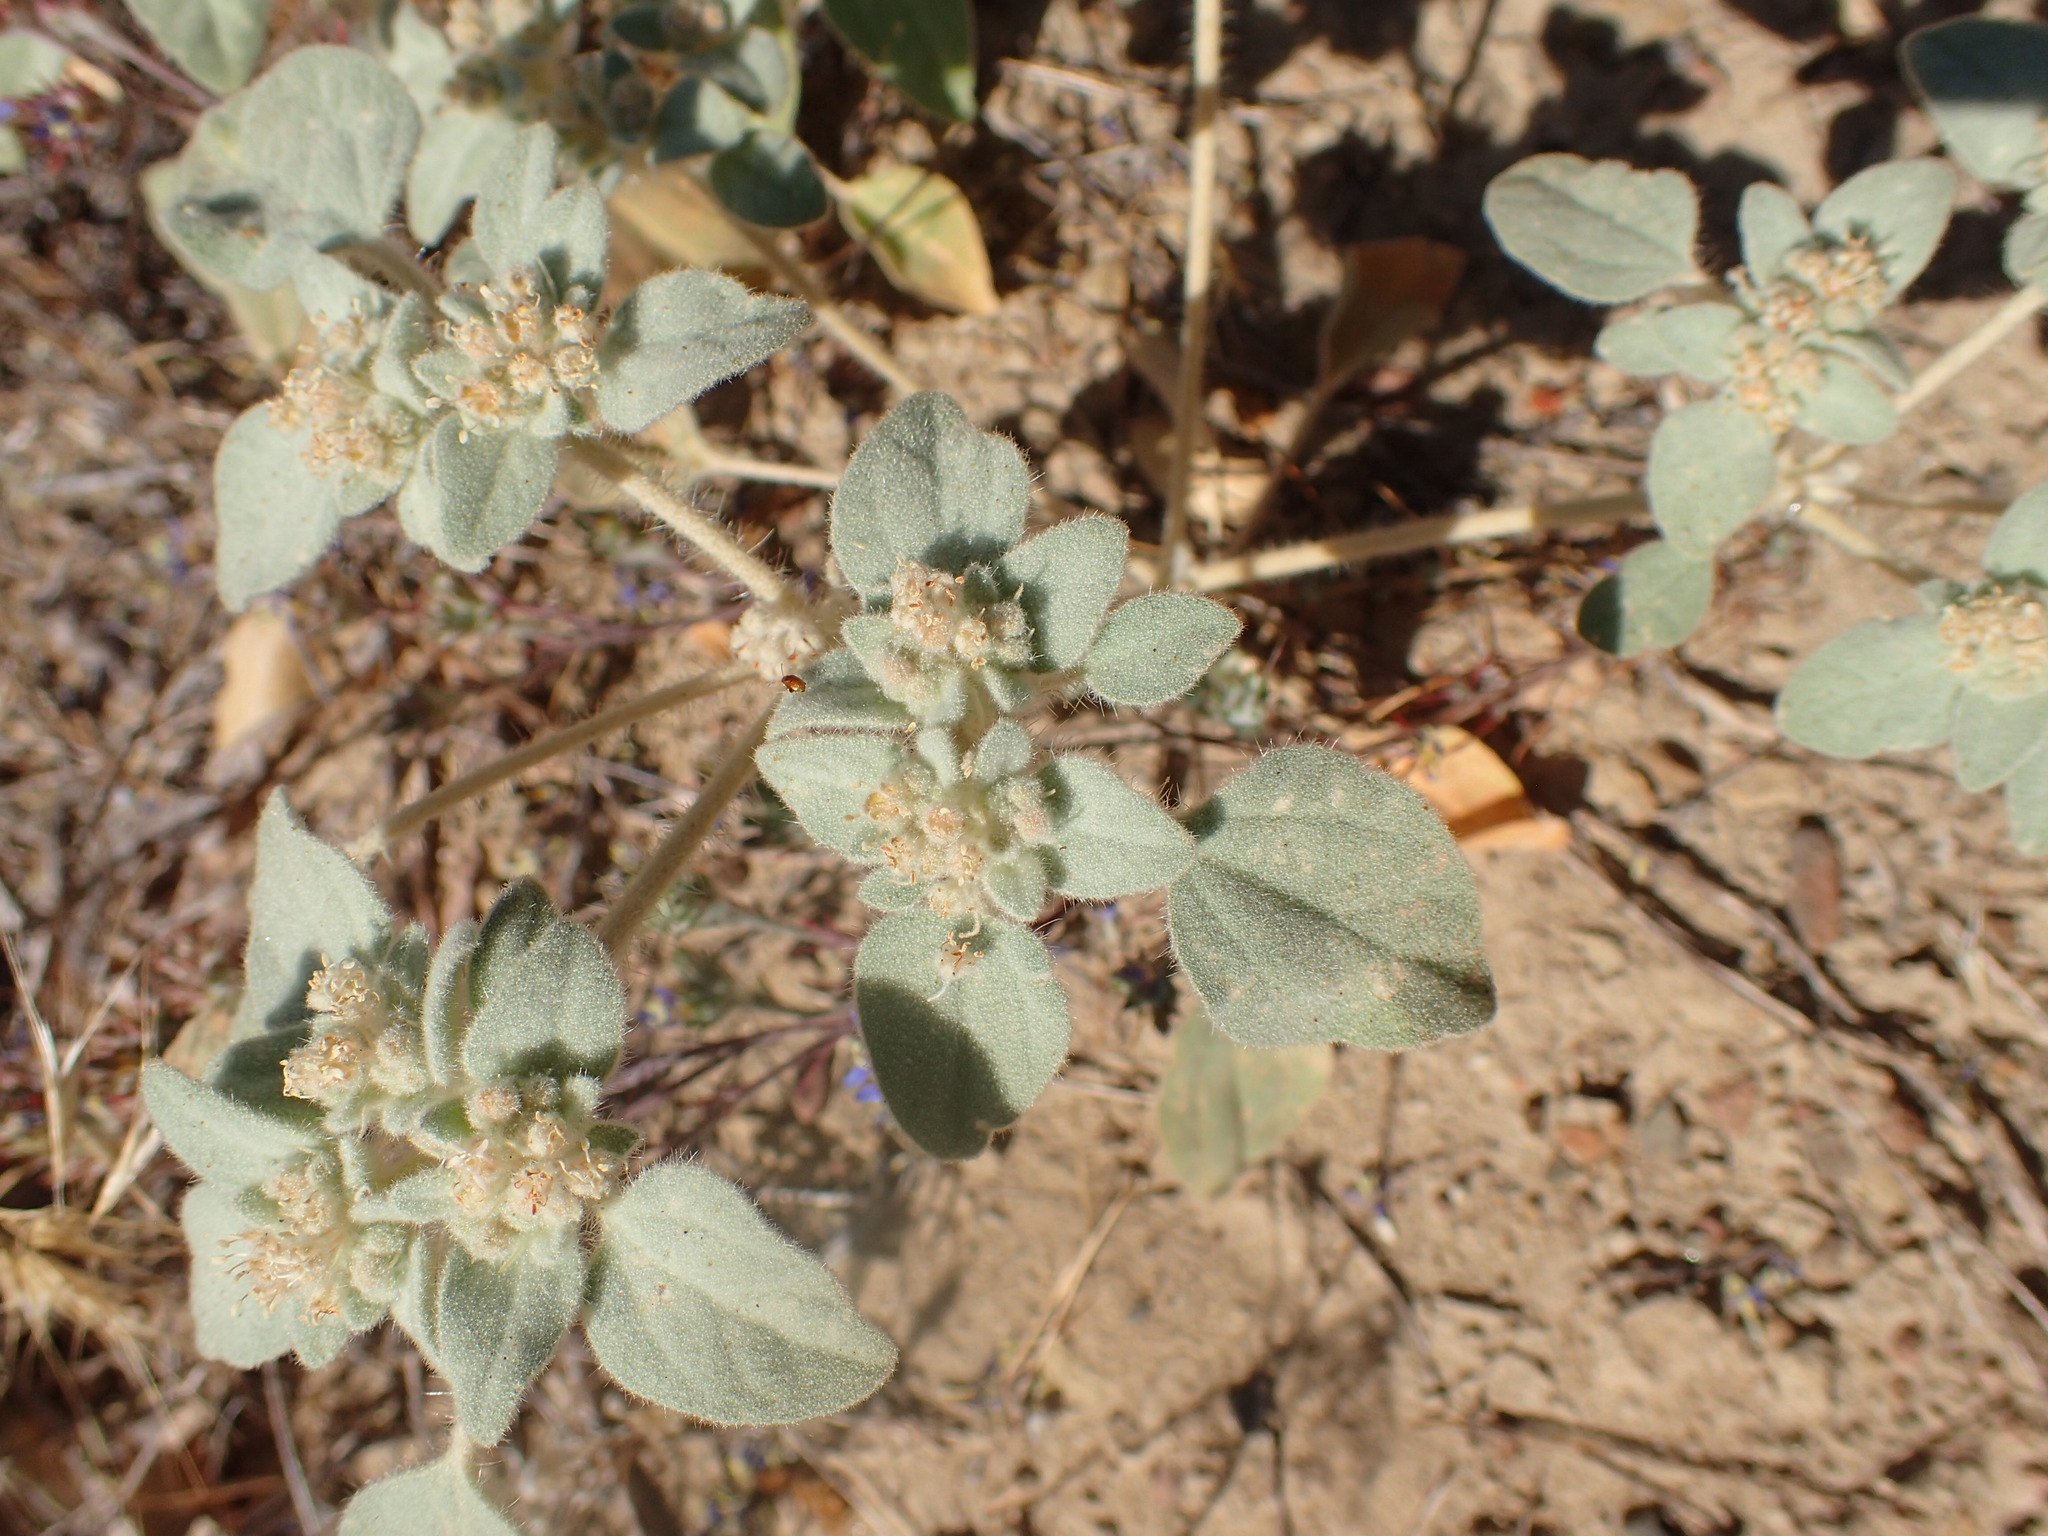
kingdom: Plantae
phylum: Tracheophyta
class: Magnoliopsida
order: Malpighiales
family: Euphorbiaceae
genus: Croton
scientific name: Croton setiger
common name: Dove weed
